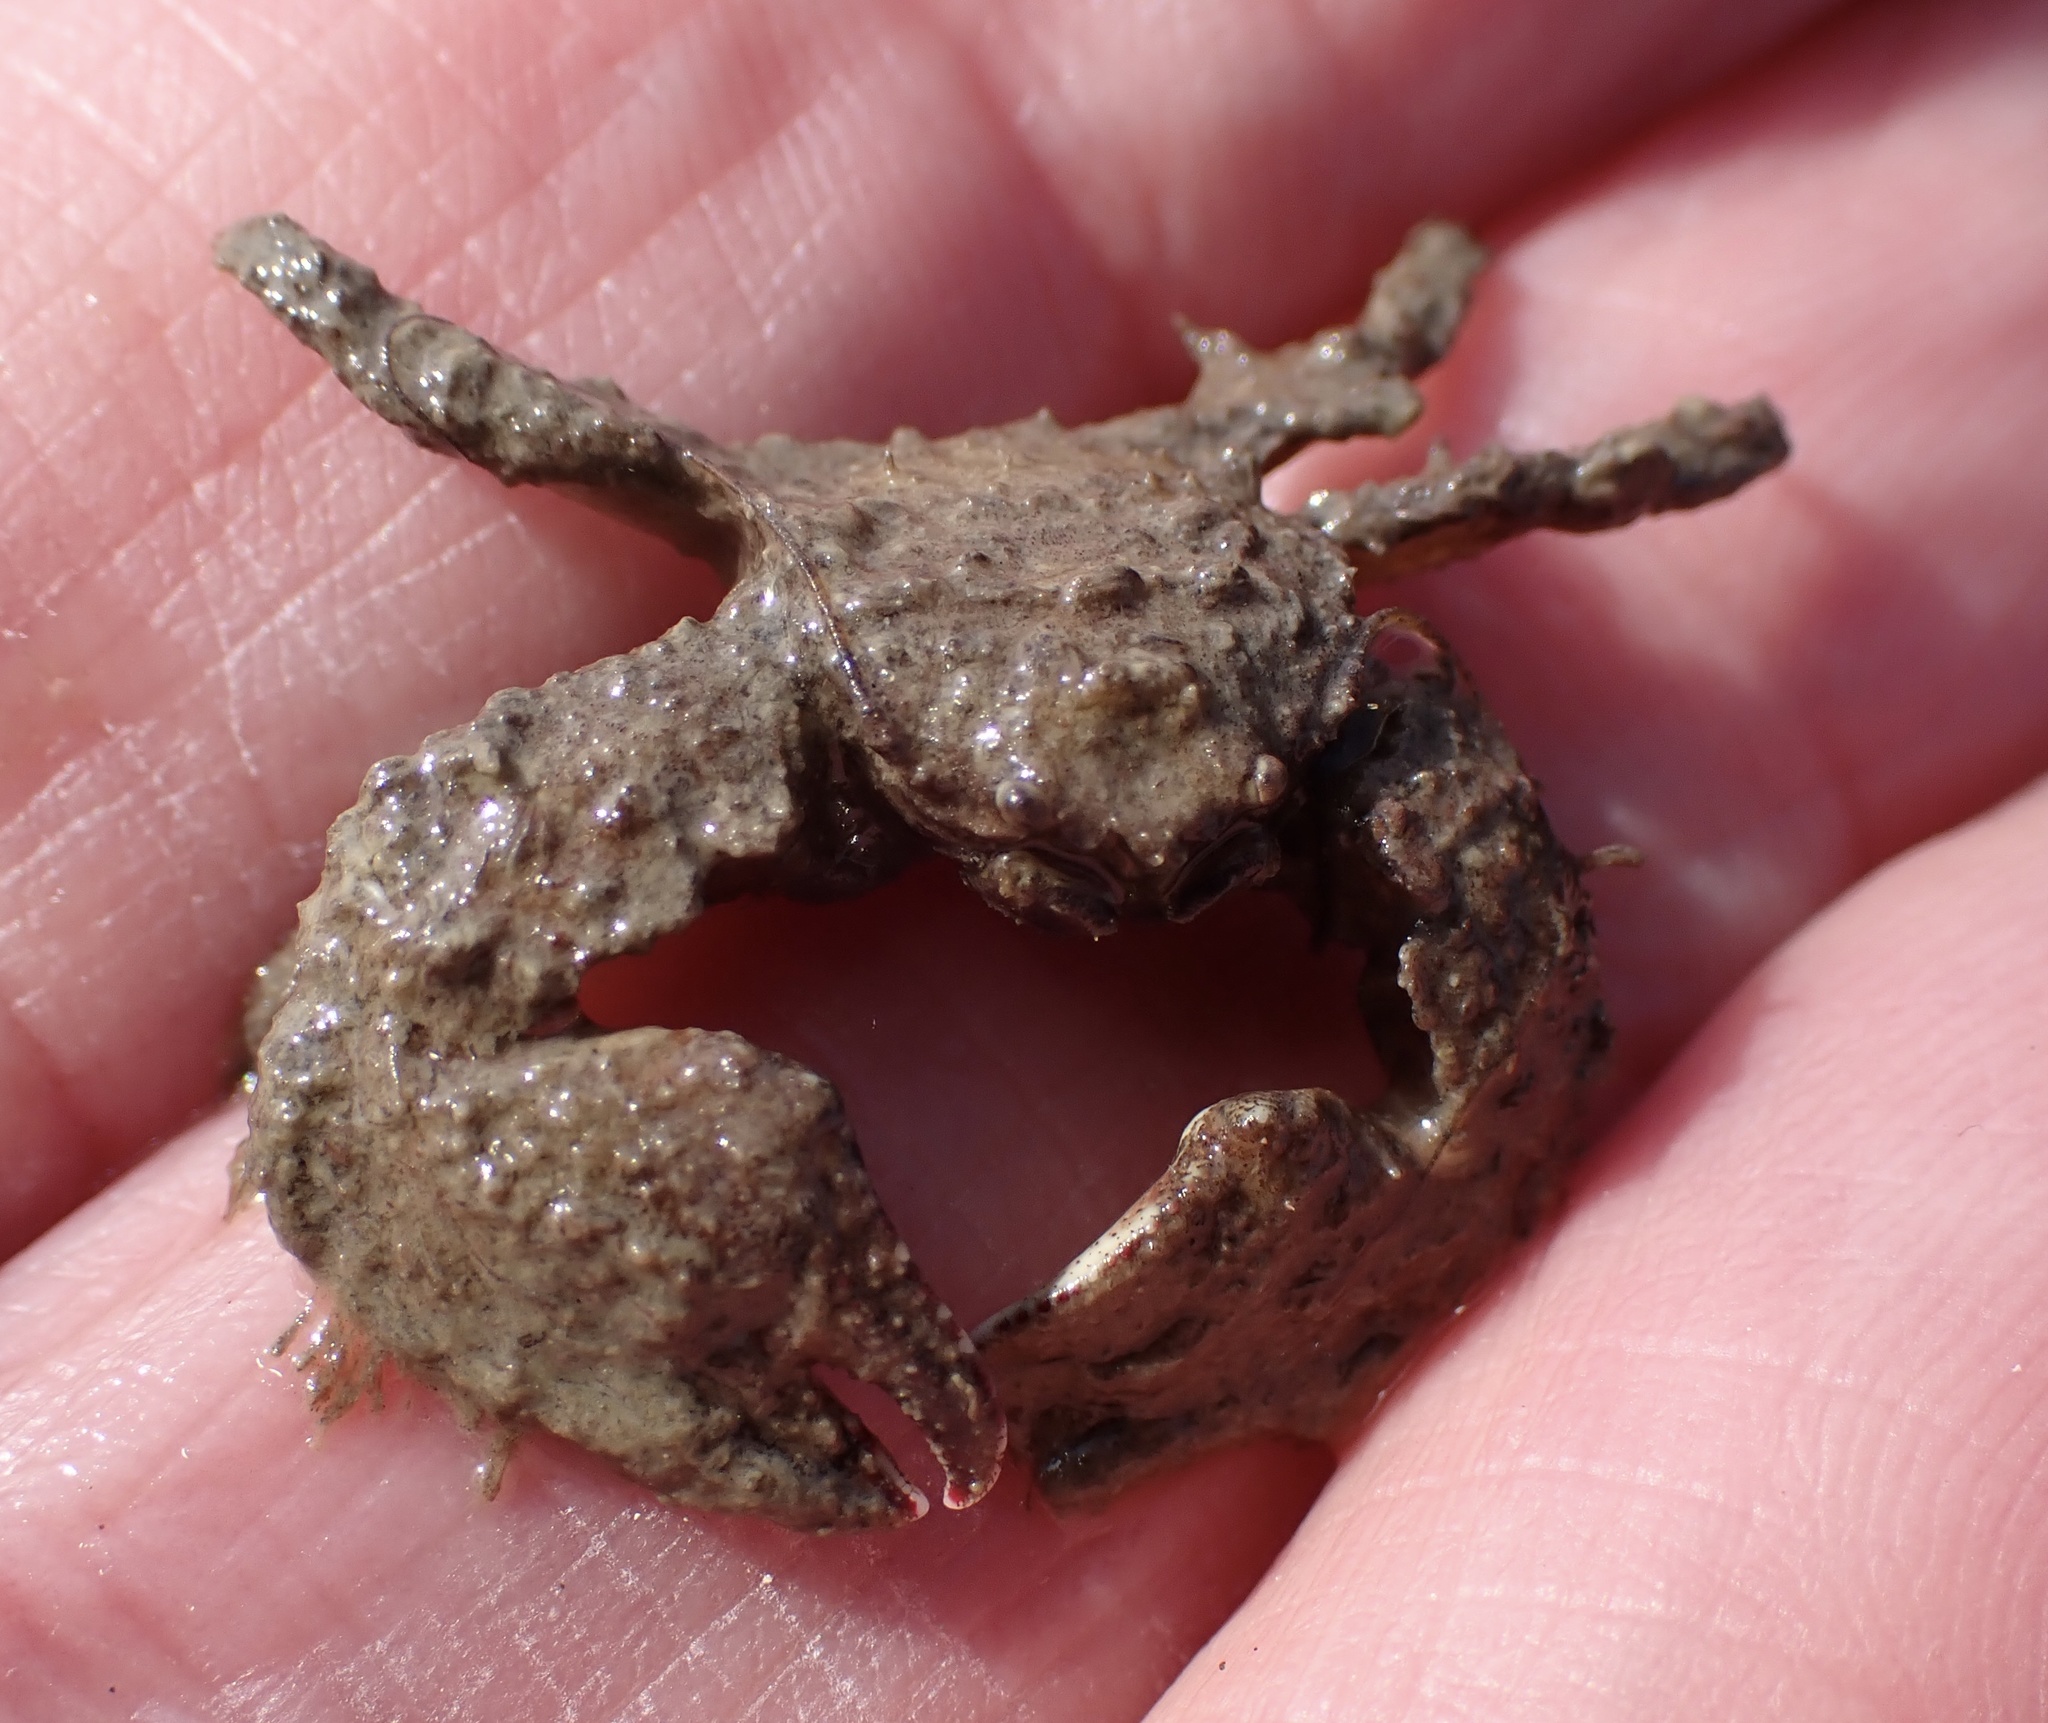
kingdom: Animalia
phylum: Arthropoda
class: Malacostraca
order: Decapoda
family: Porcellanidae
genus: Porcellana
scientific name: Porcellana platycheles
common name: Porcelain crab
